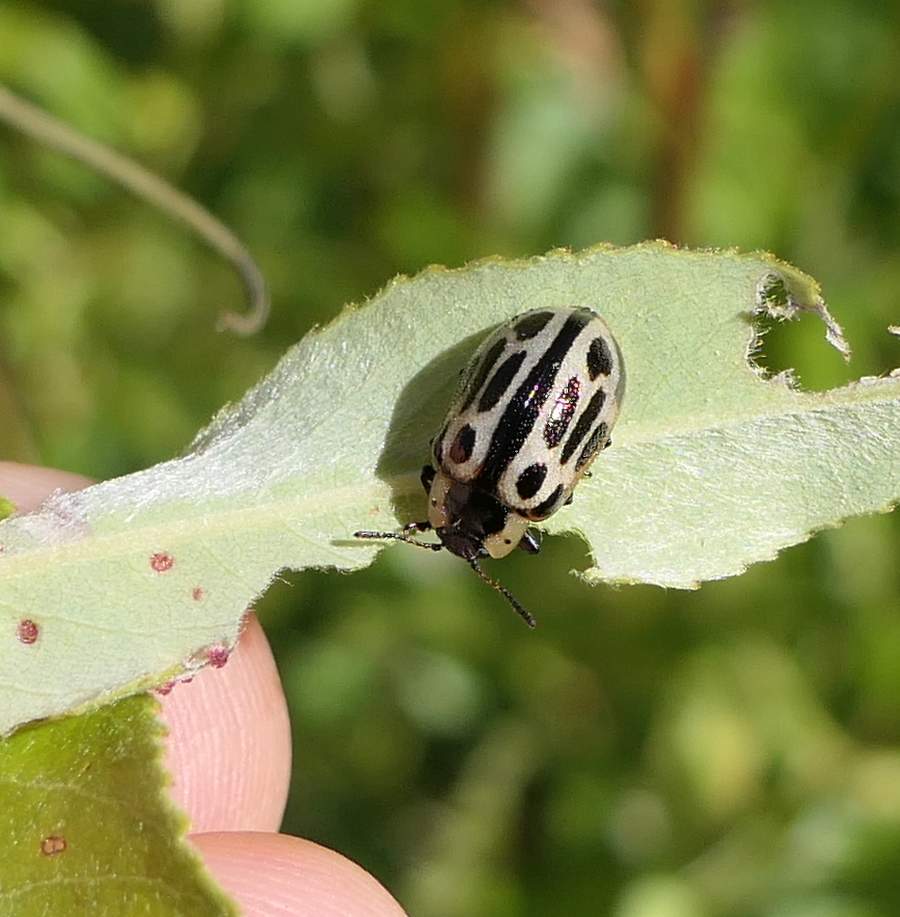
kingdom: Animalia
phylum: Arthropoda
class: Insecta
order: Coleoptera
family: Chrysomelidae
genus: Aethiopocassis
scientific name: Aethiopocassis scripta
